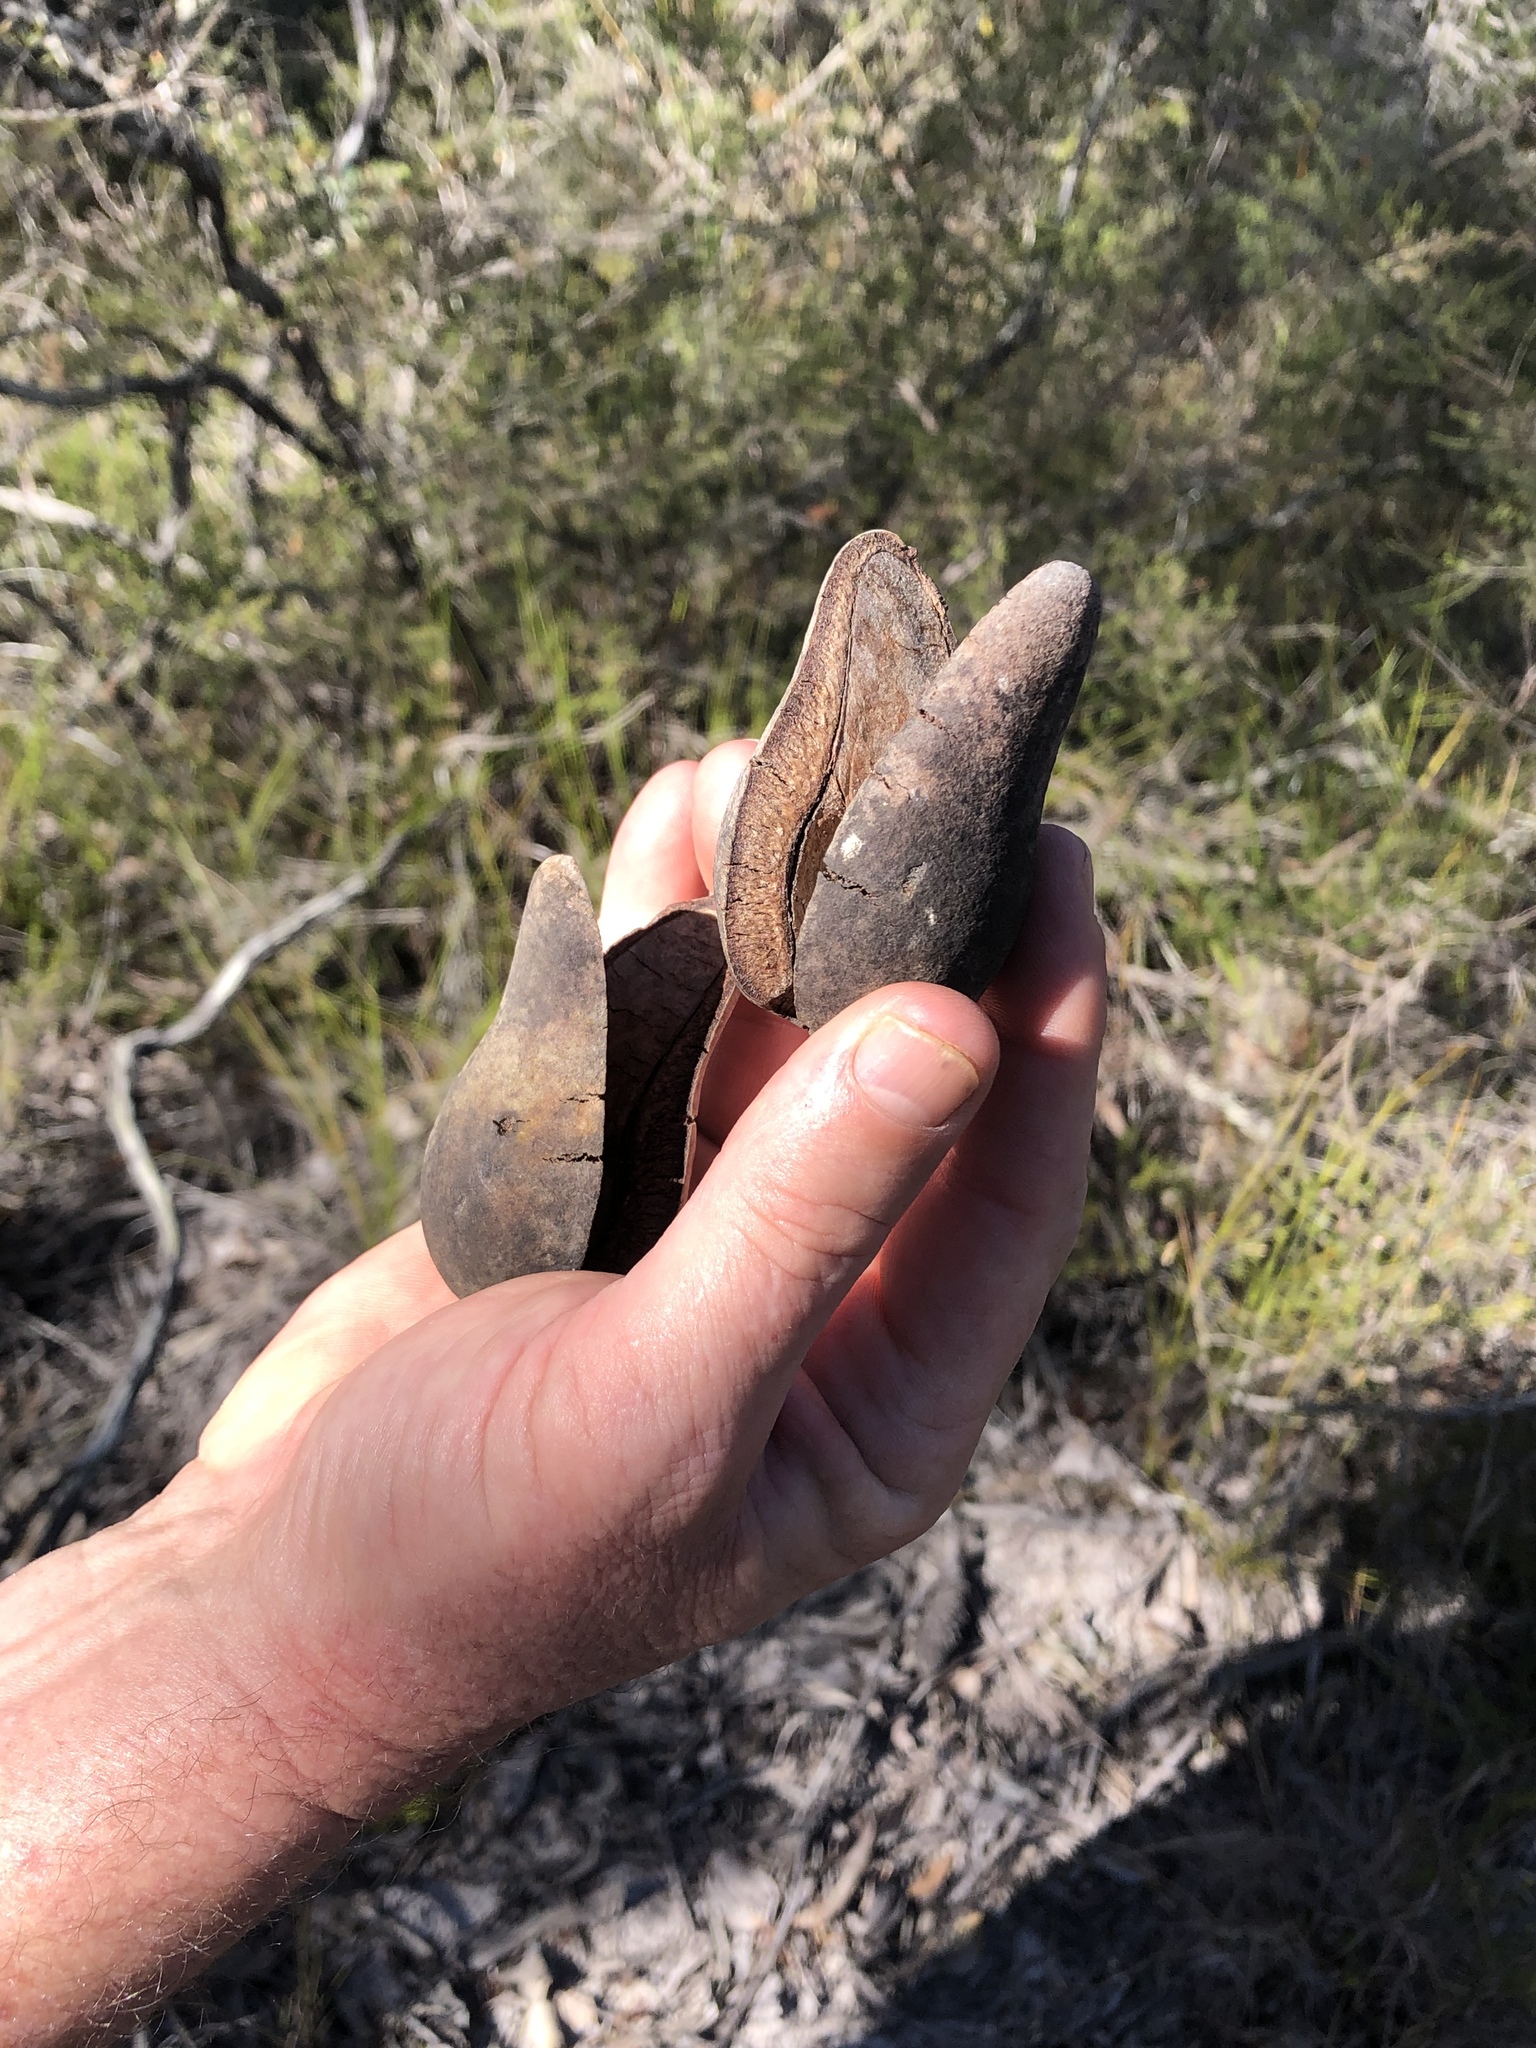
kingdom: Plantae
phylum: Tracheophyta
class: Magnoliopsida
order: Proteales
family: Proteaceae
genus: Xylomelum
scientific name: Xylomelum salicinum
